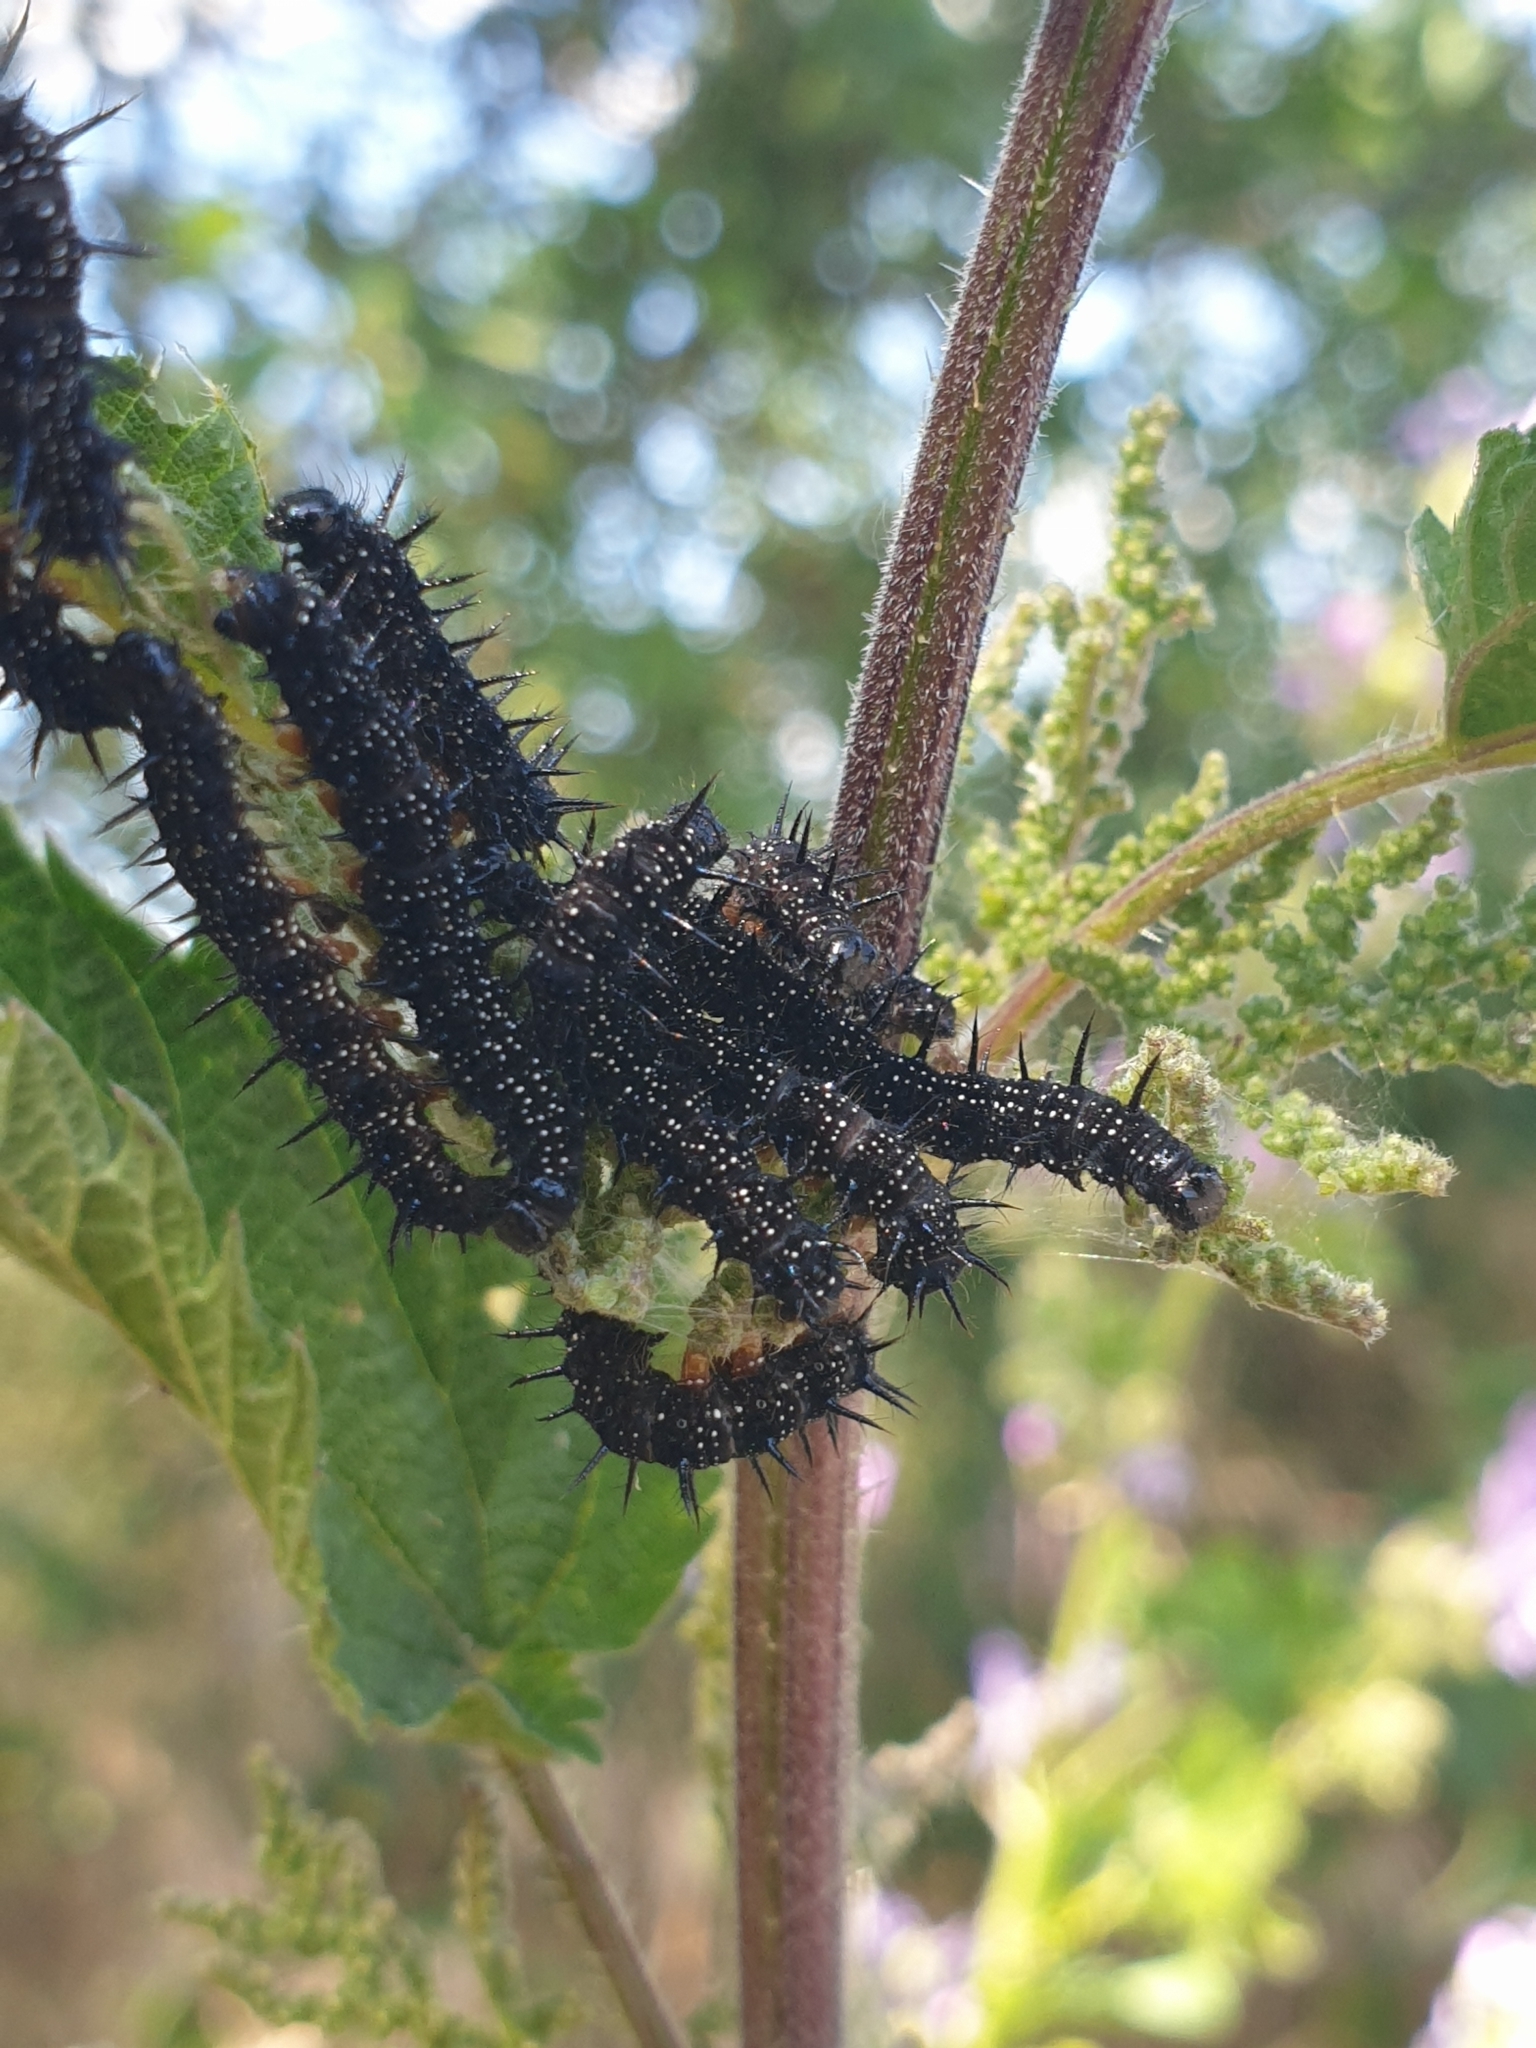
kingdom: Animalia
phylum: Arthropoda
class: Insecta
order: Lepidoptera
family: Nymphalidae
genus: Aglais
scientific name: Aglais io
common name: Peacock
